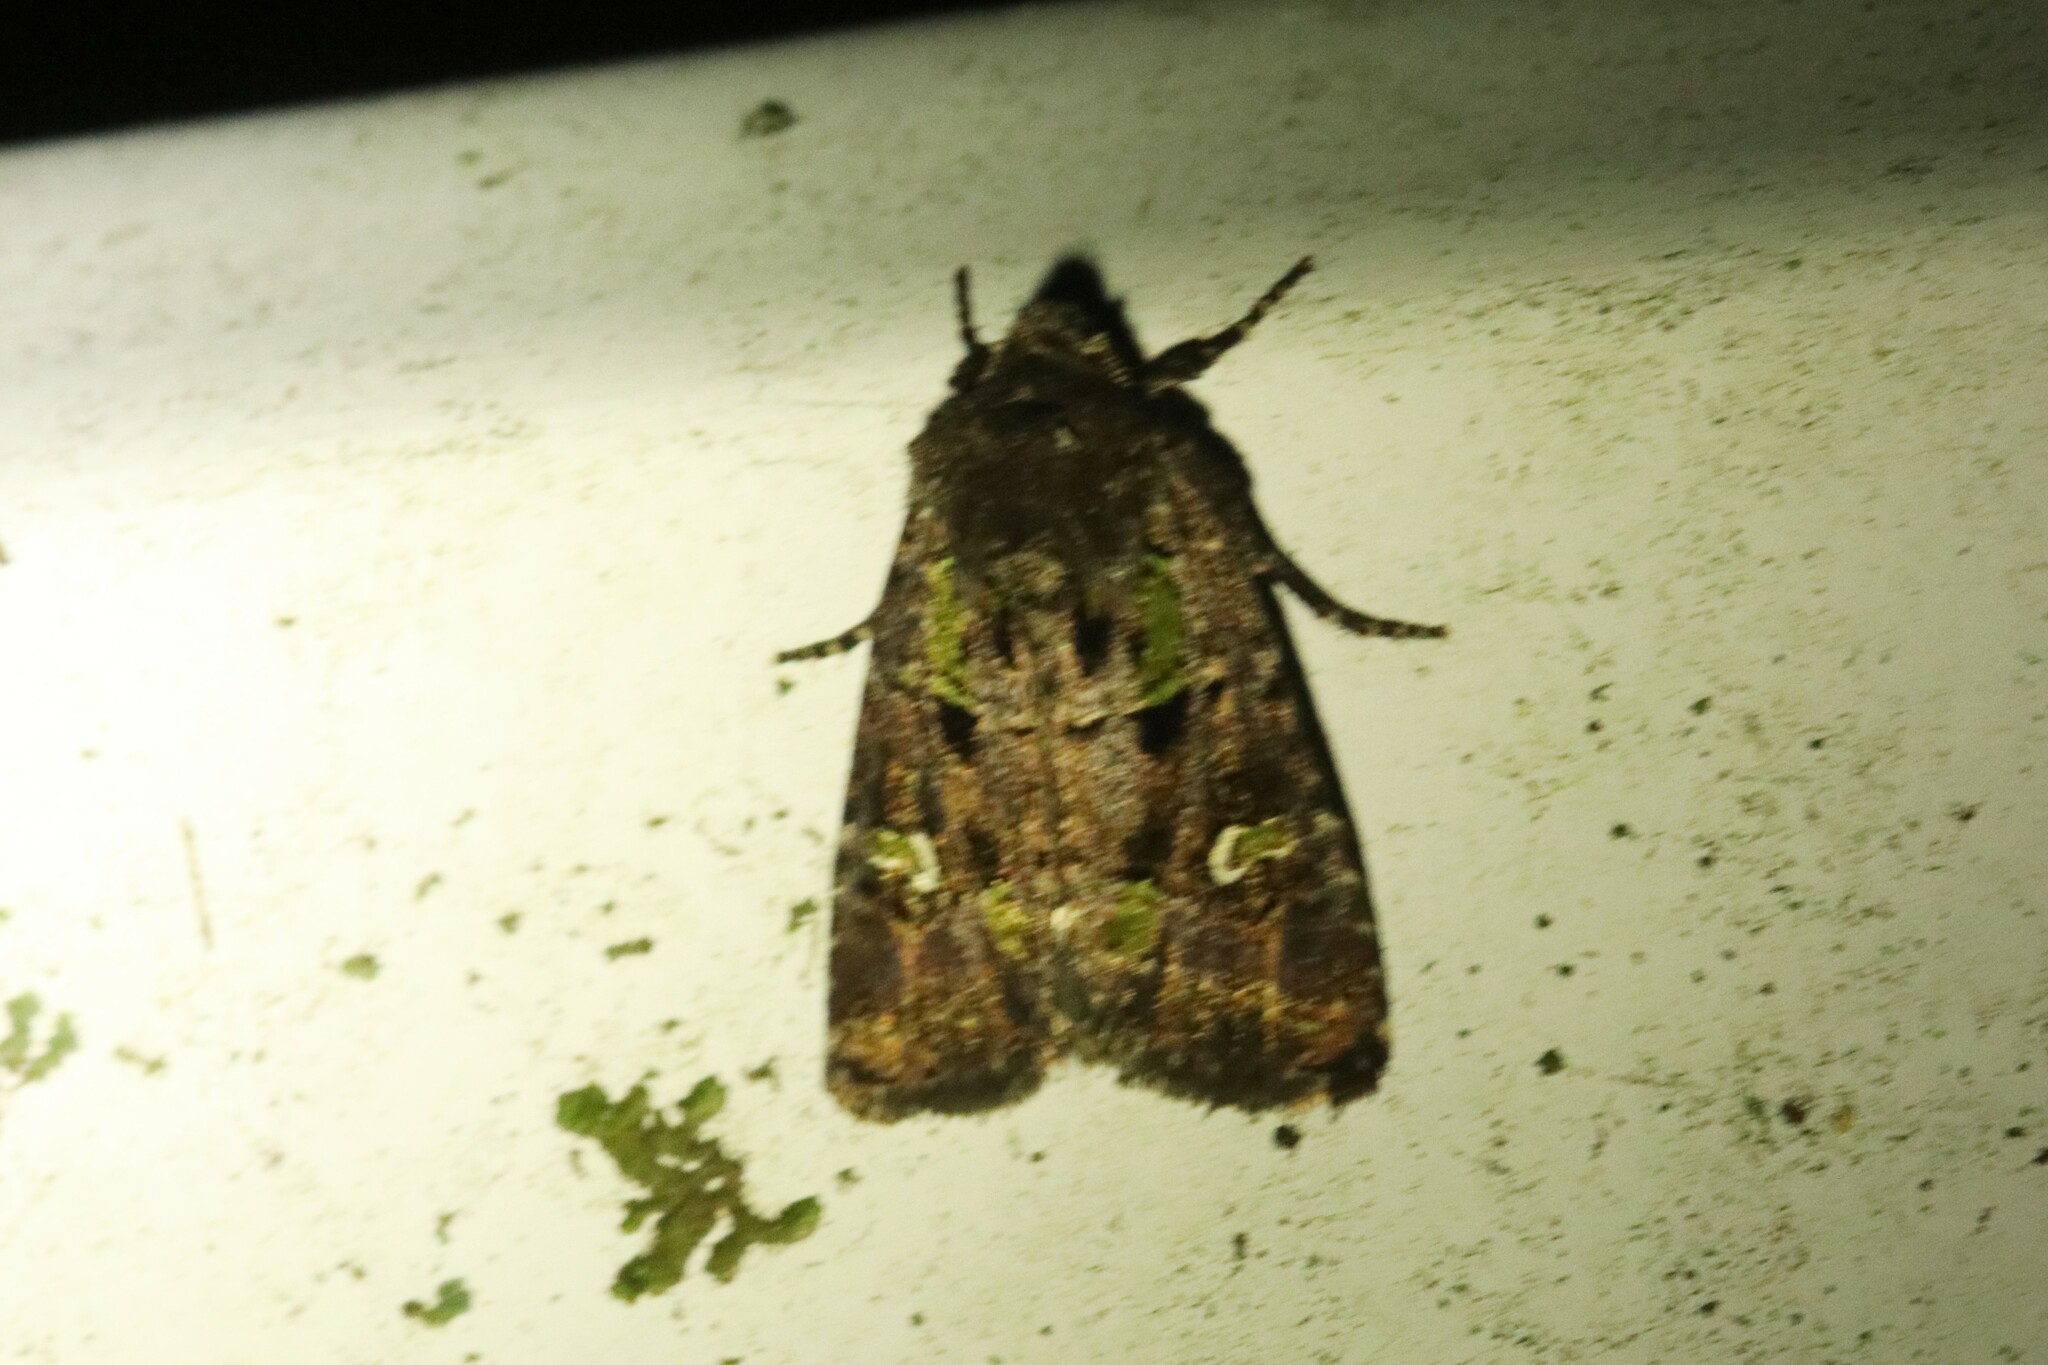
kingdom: Animalia
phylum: Arthropoda
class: Insecta
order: Lepidoptera
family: Noctuidae
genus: Lacinipolia
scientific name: Lacinipolia renigera
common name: Kidney-spotted minor
